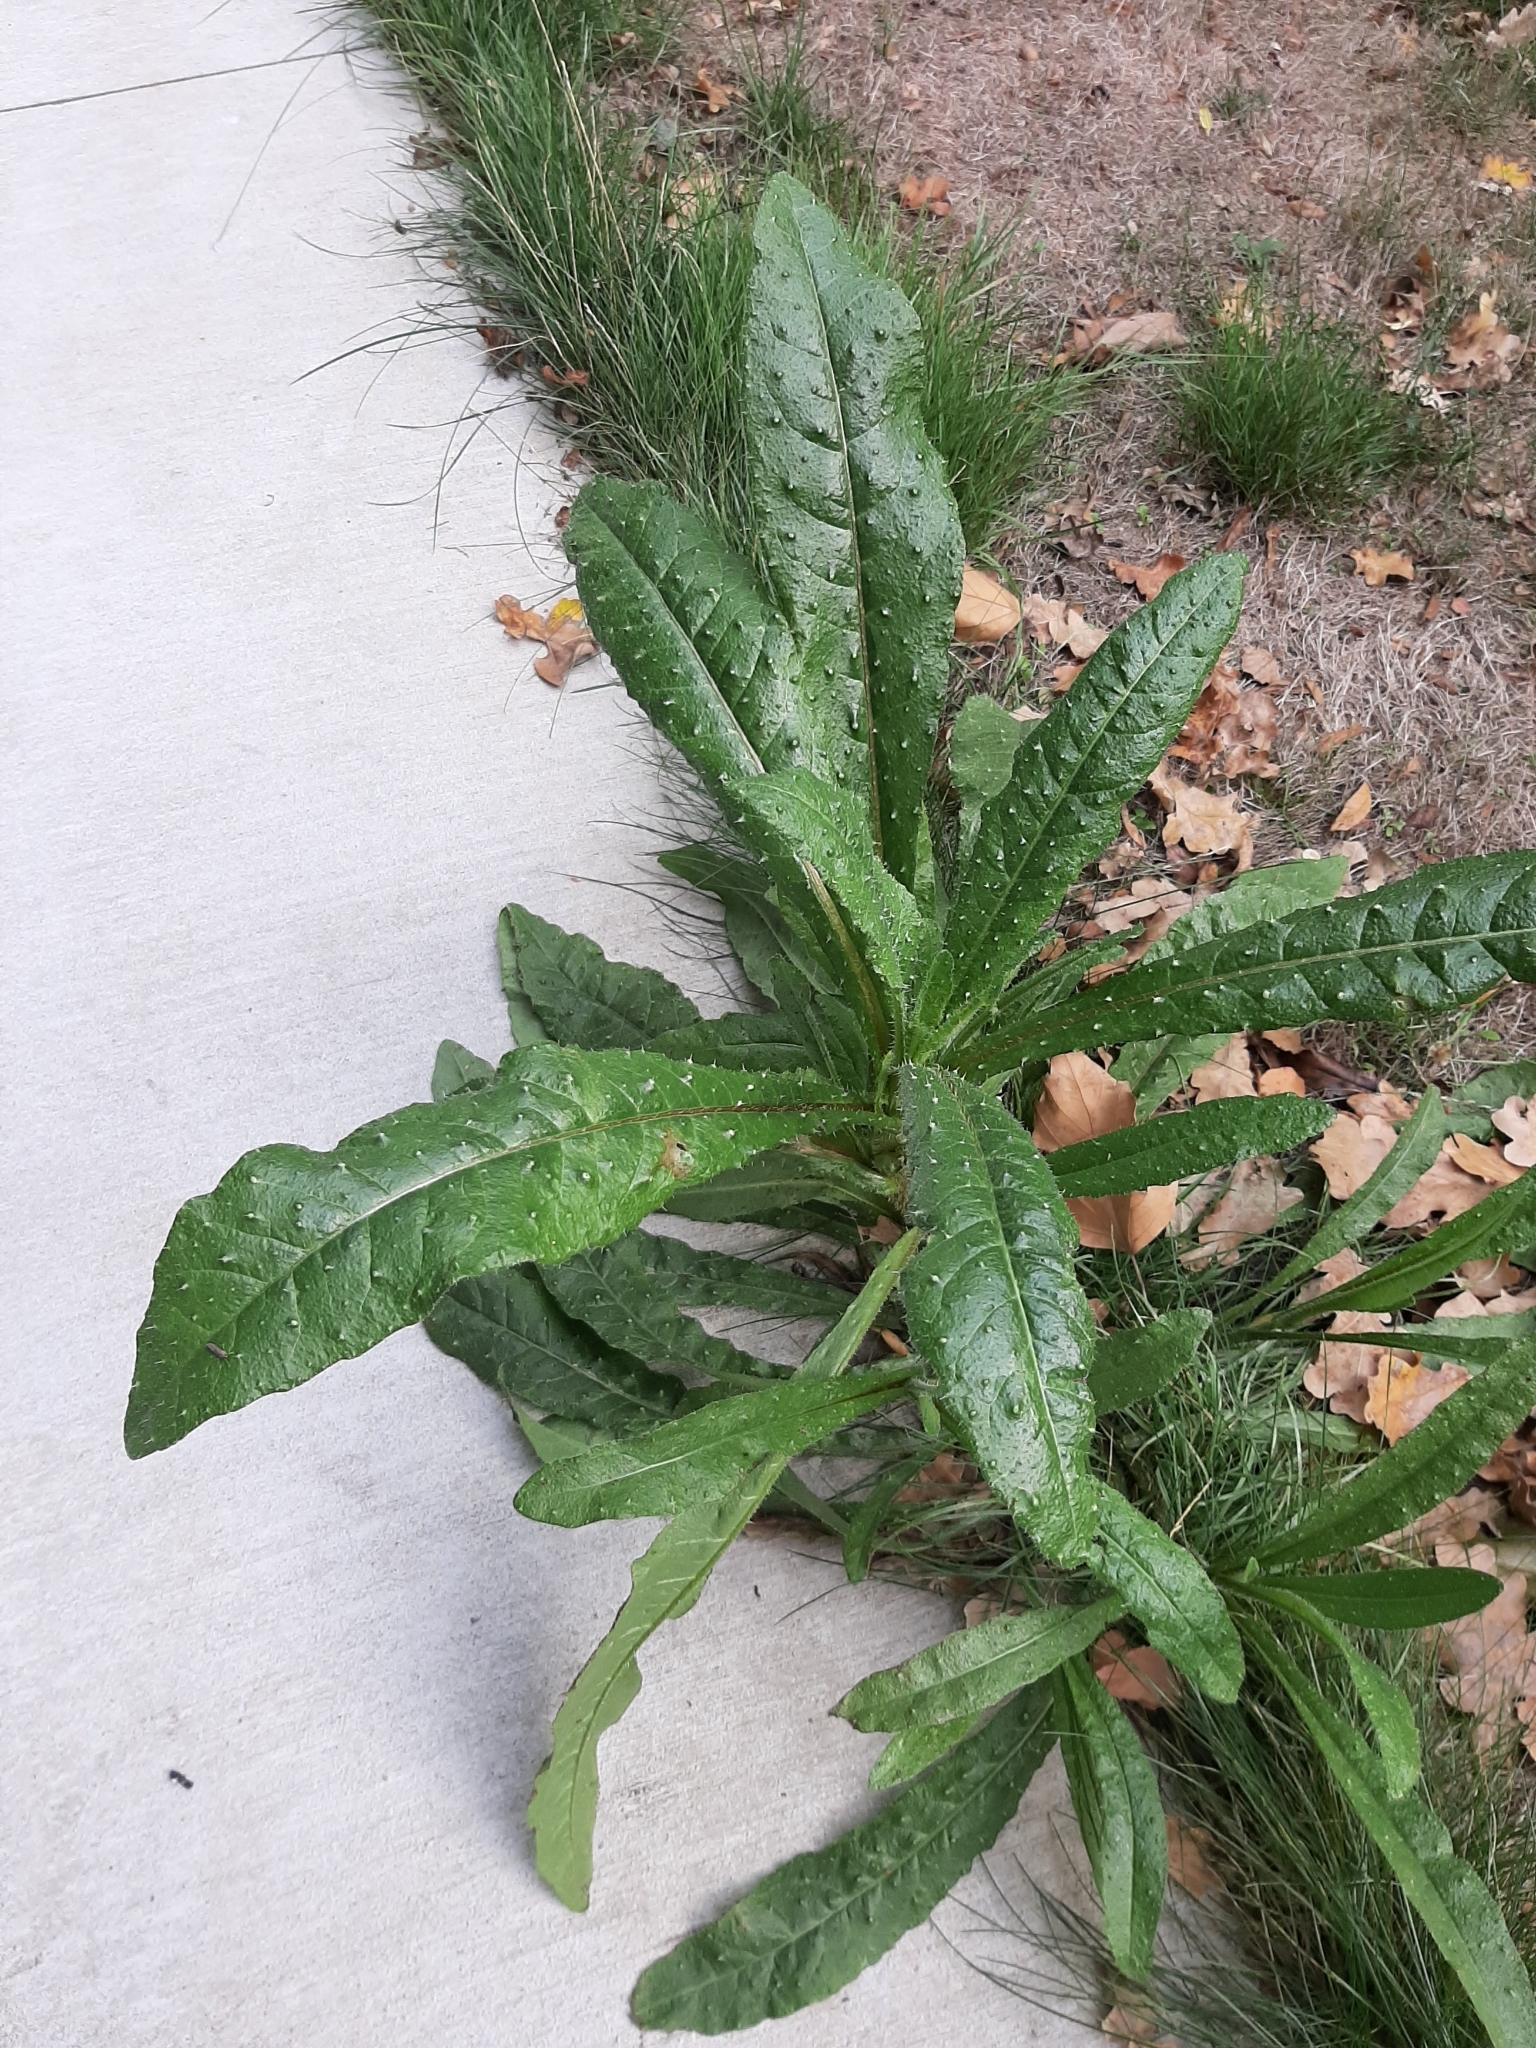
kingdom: Plantae
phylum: Tracheophyta
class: Magnoliopsida
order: Asterales
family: Asteraceae
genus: Helminthotheca
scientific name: Helminthotheca echioides
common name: Ox-tongue
